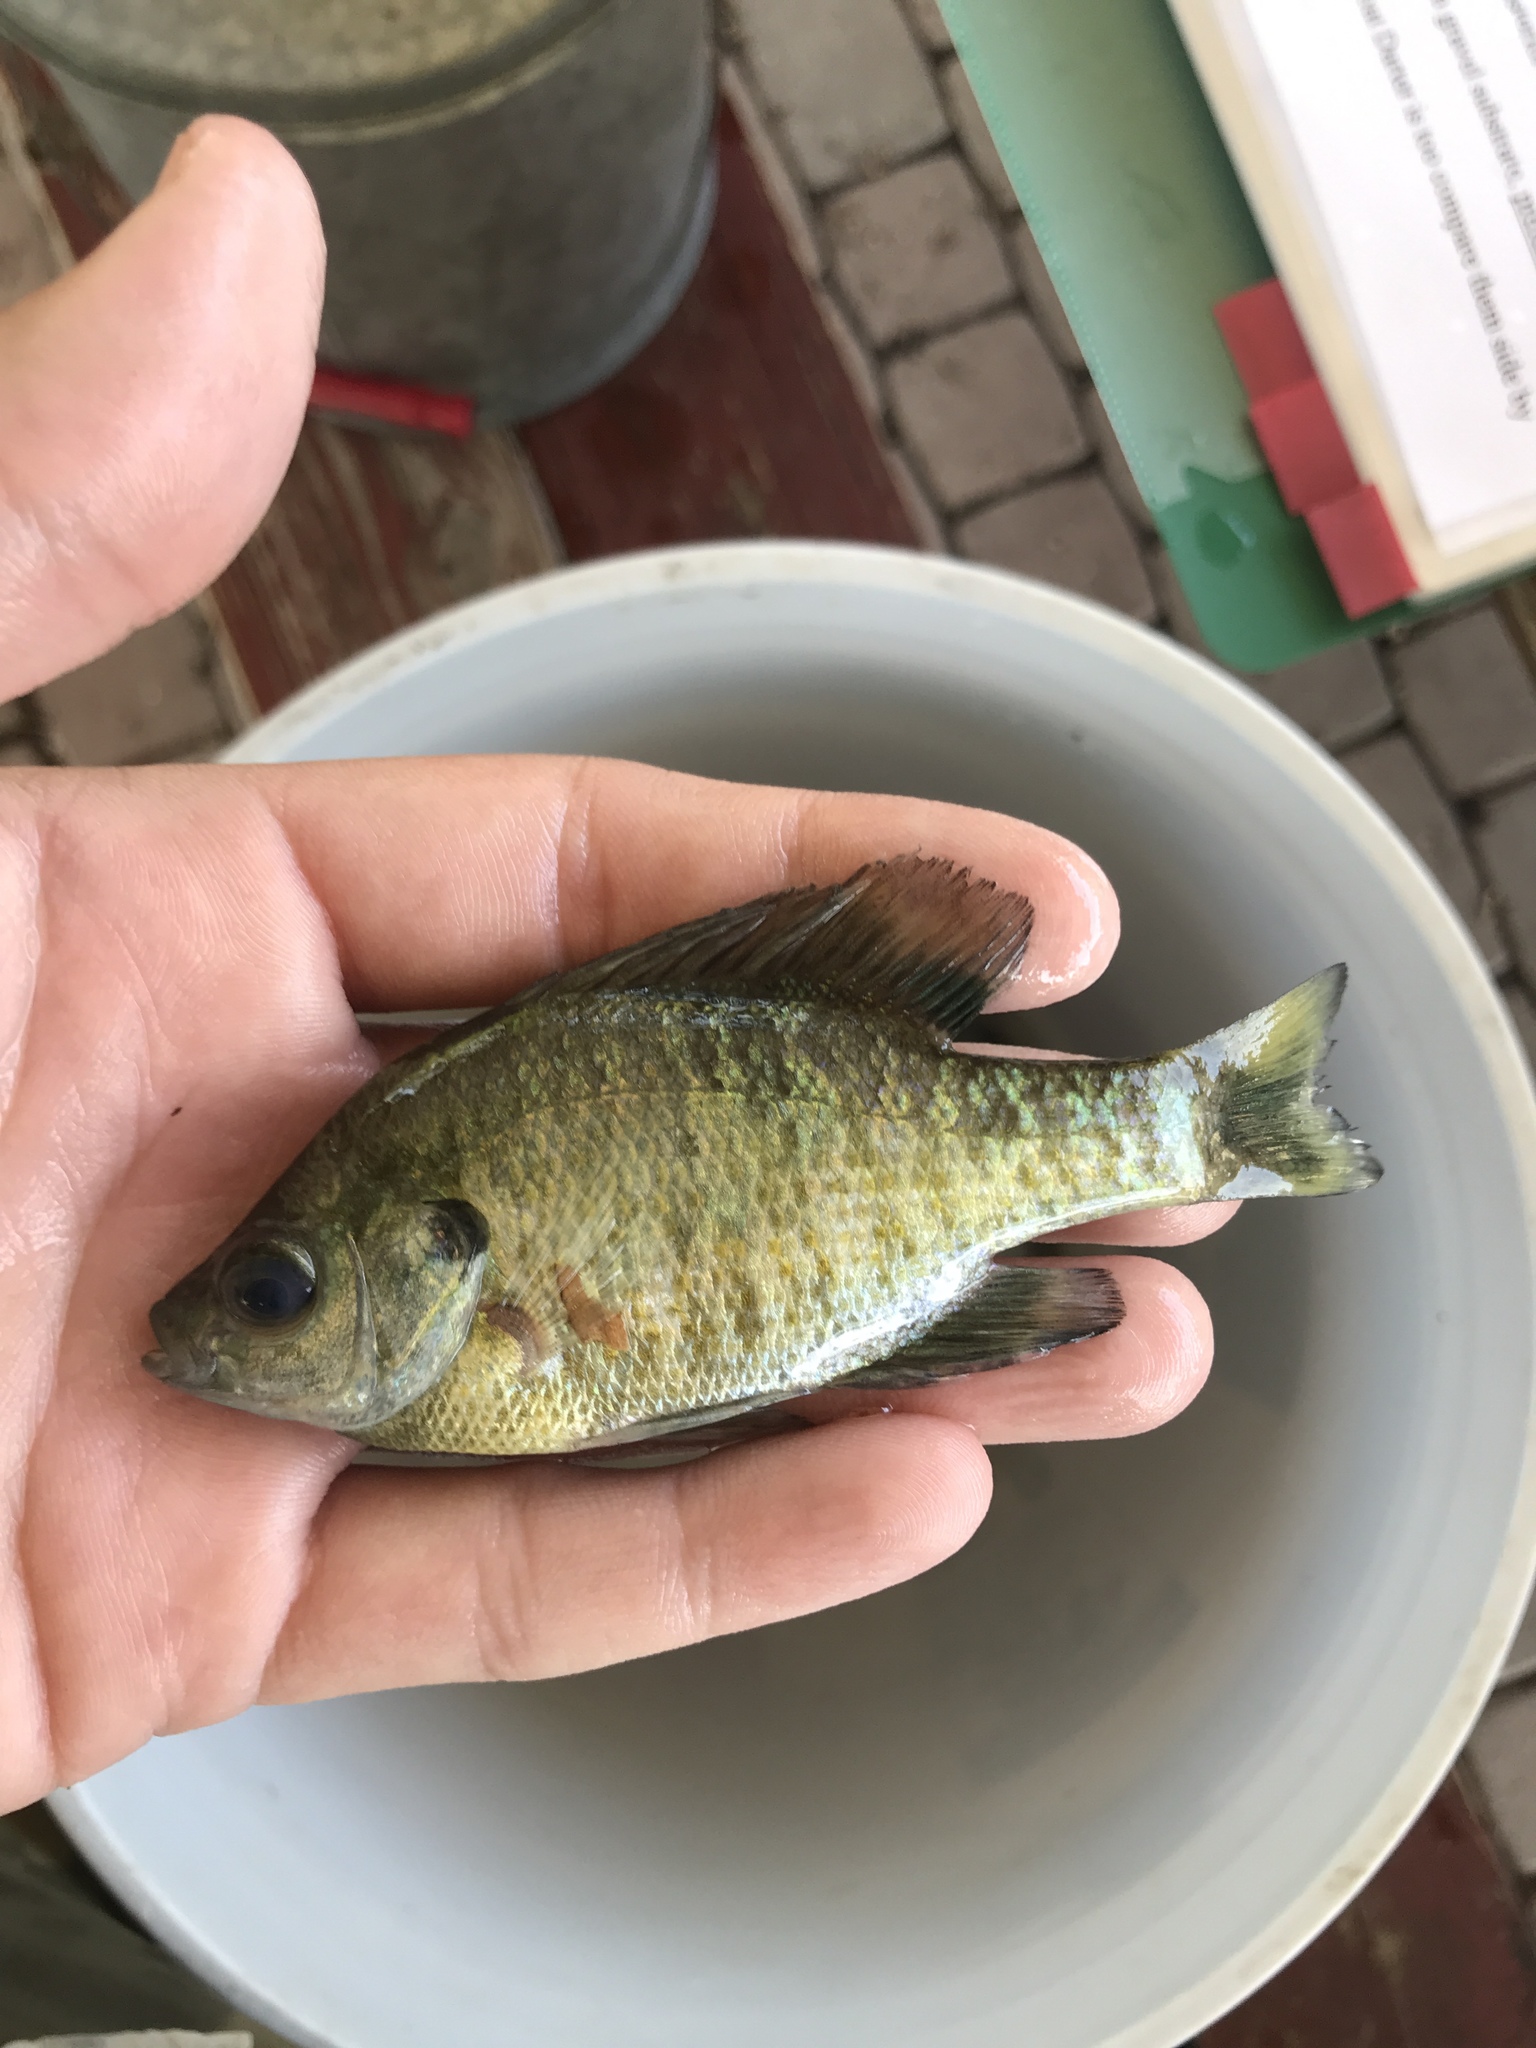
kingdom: Animalia
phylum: Chordata
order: Perciformes
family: Centrarchidae
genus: Lepomis
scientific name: Lepomis macrochirus
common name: Bluegill
